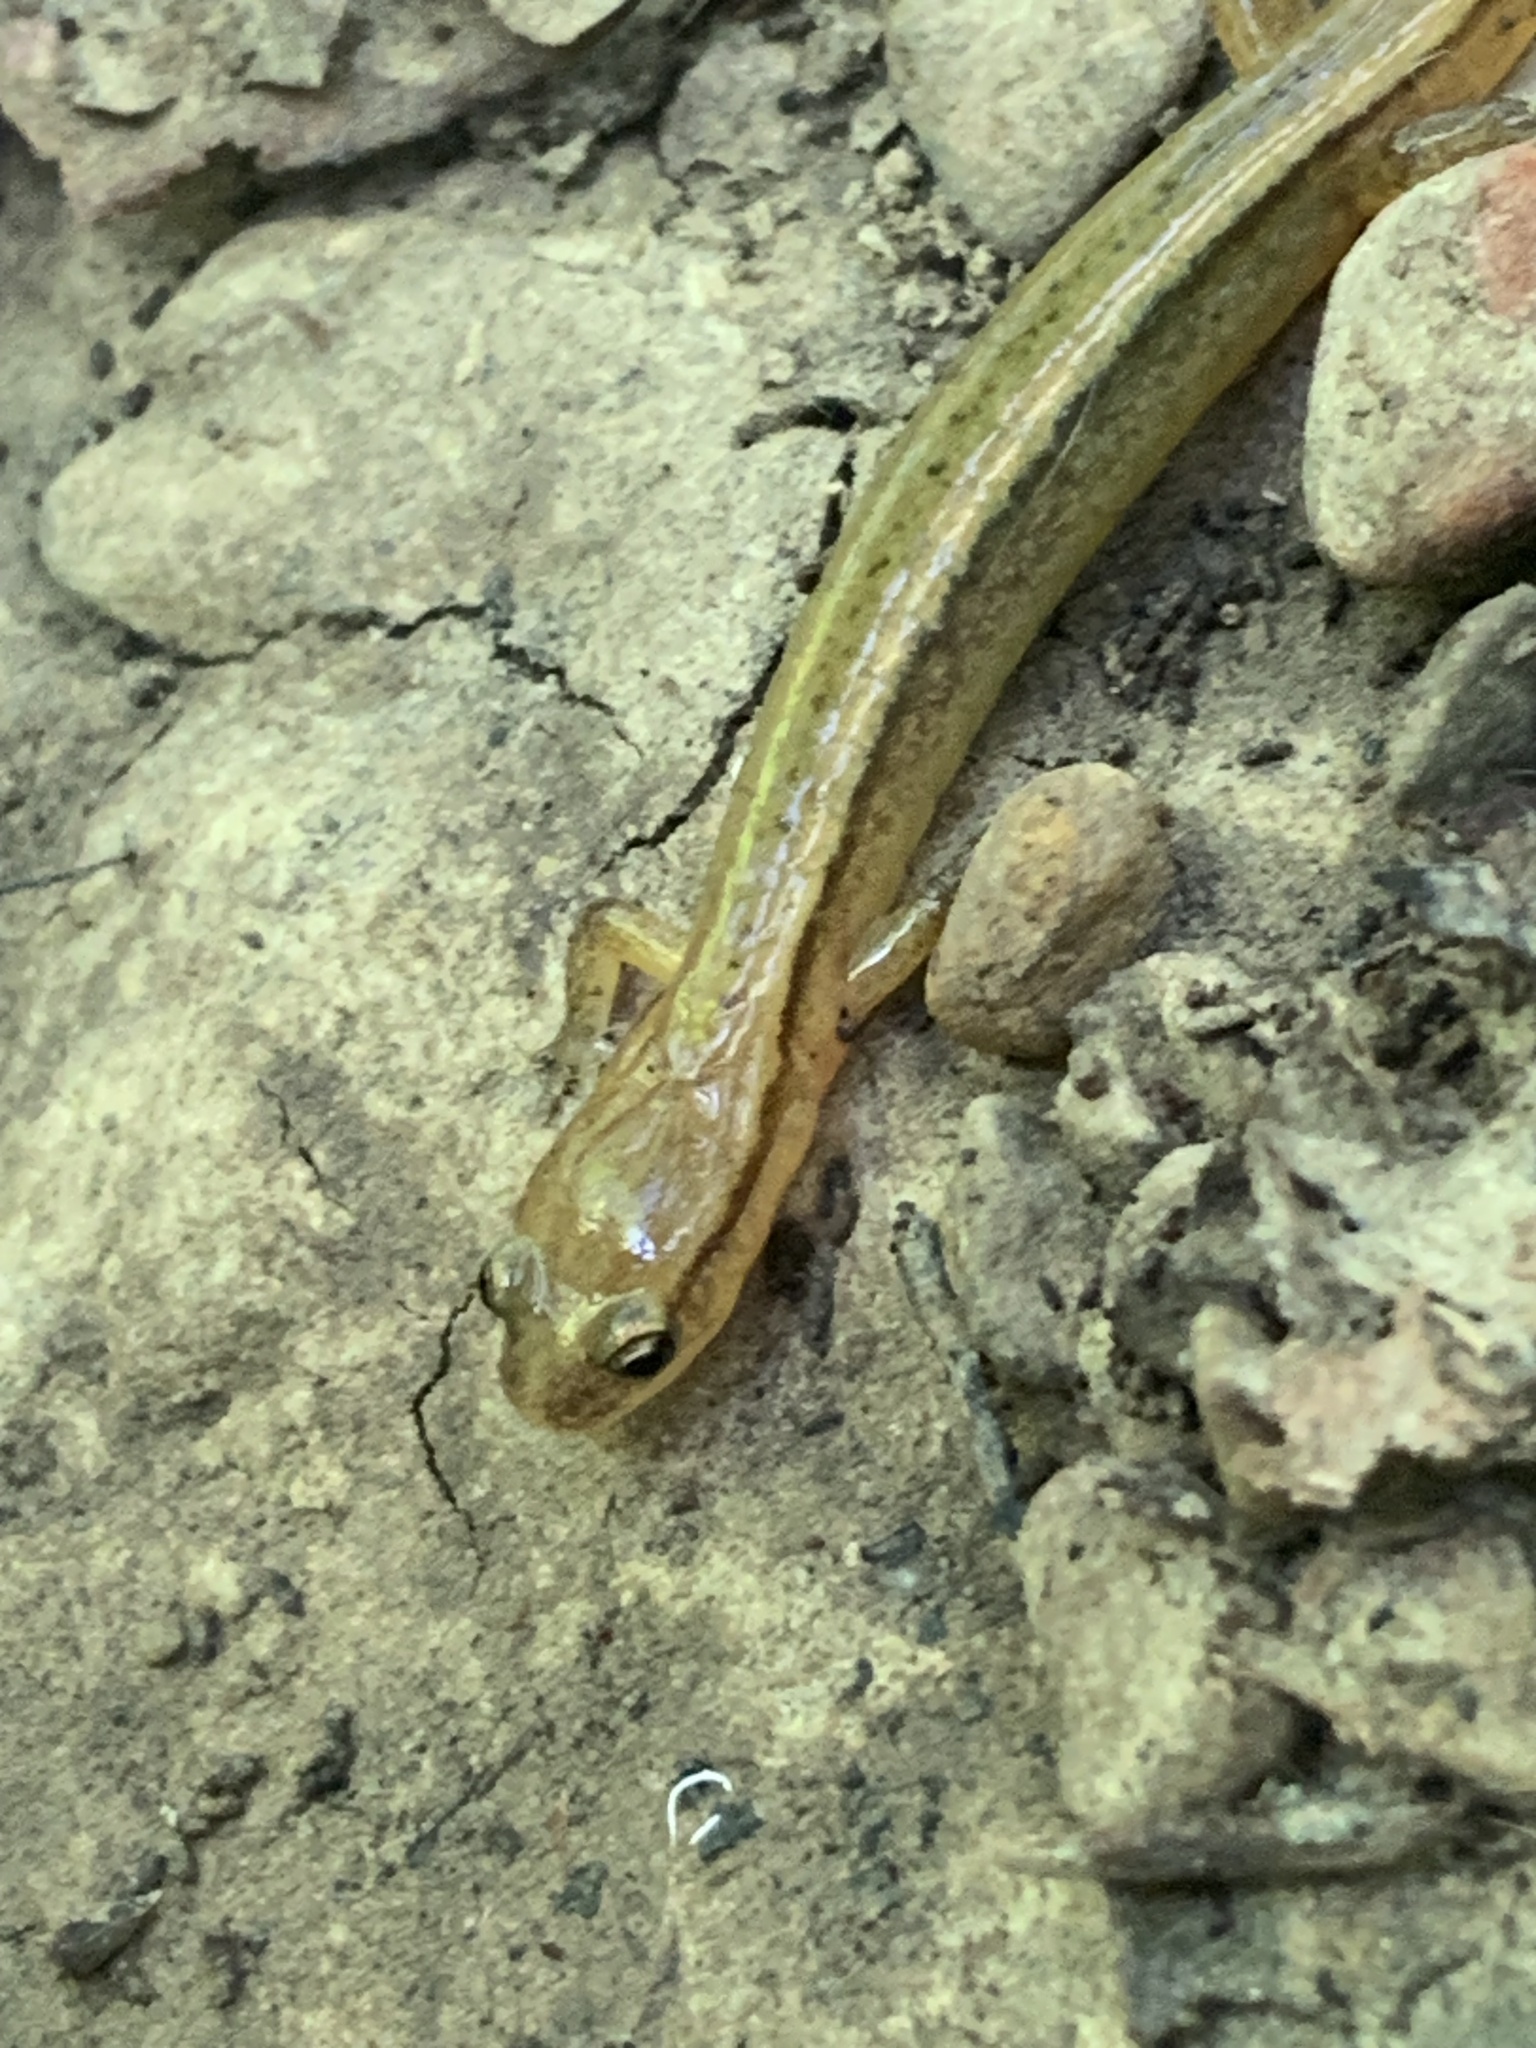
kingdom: Animalia
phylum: Chordata
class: Amphibia
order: Caudata
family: Plethodontidae
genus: Eurycea
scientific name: Eurycea cirrigera
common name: Southern two-lined salamander
